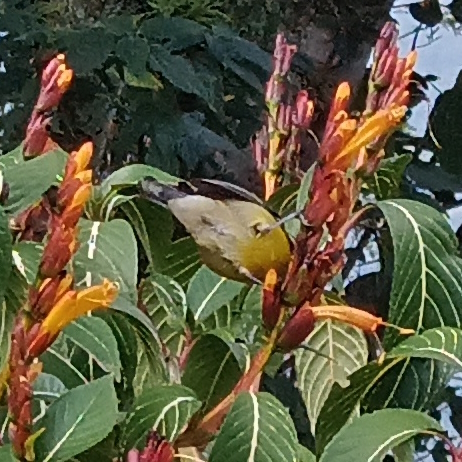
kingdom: Animalia
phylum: Chordata
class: Aves
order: Passeriformes
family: Thraupidae
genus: Coereba
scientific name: Coereba flaveola
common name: Bananaquit
